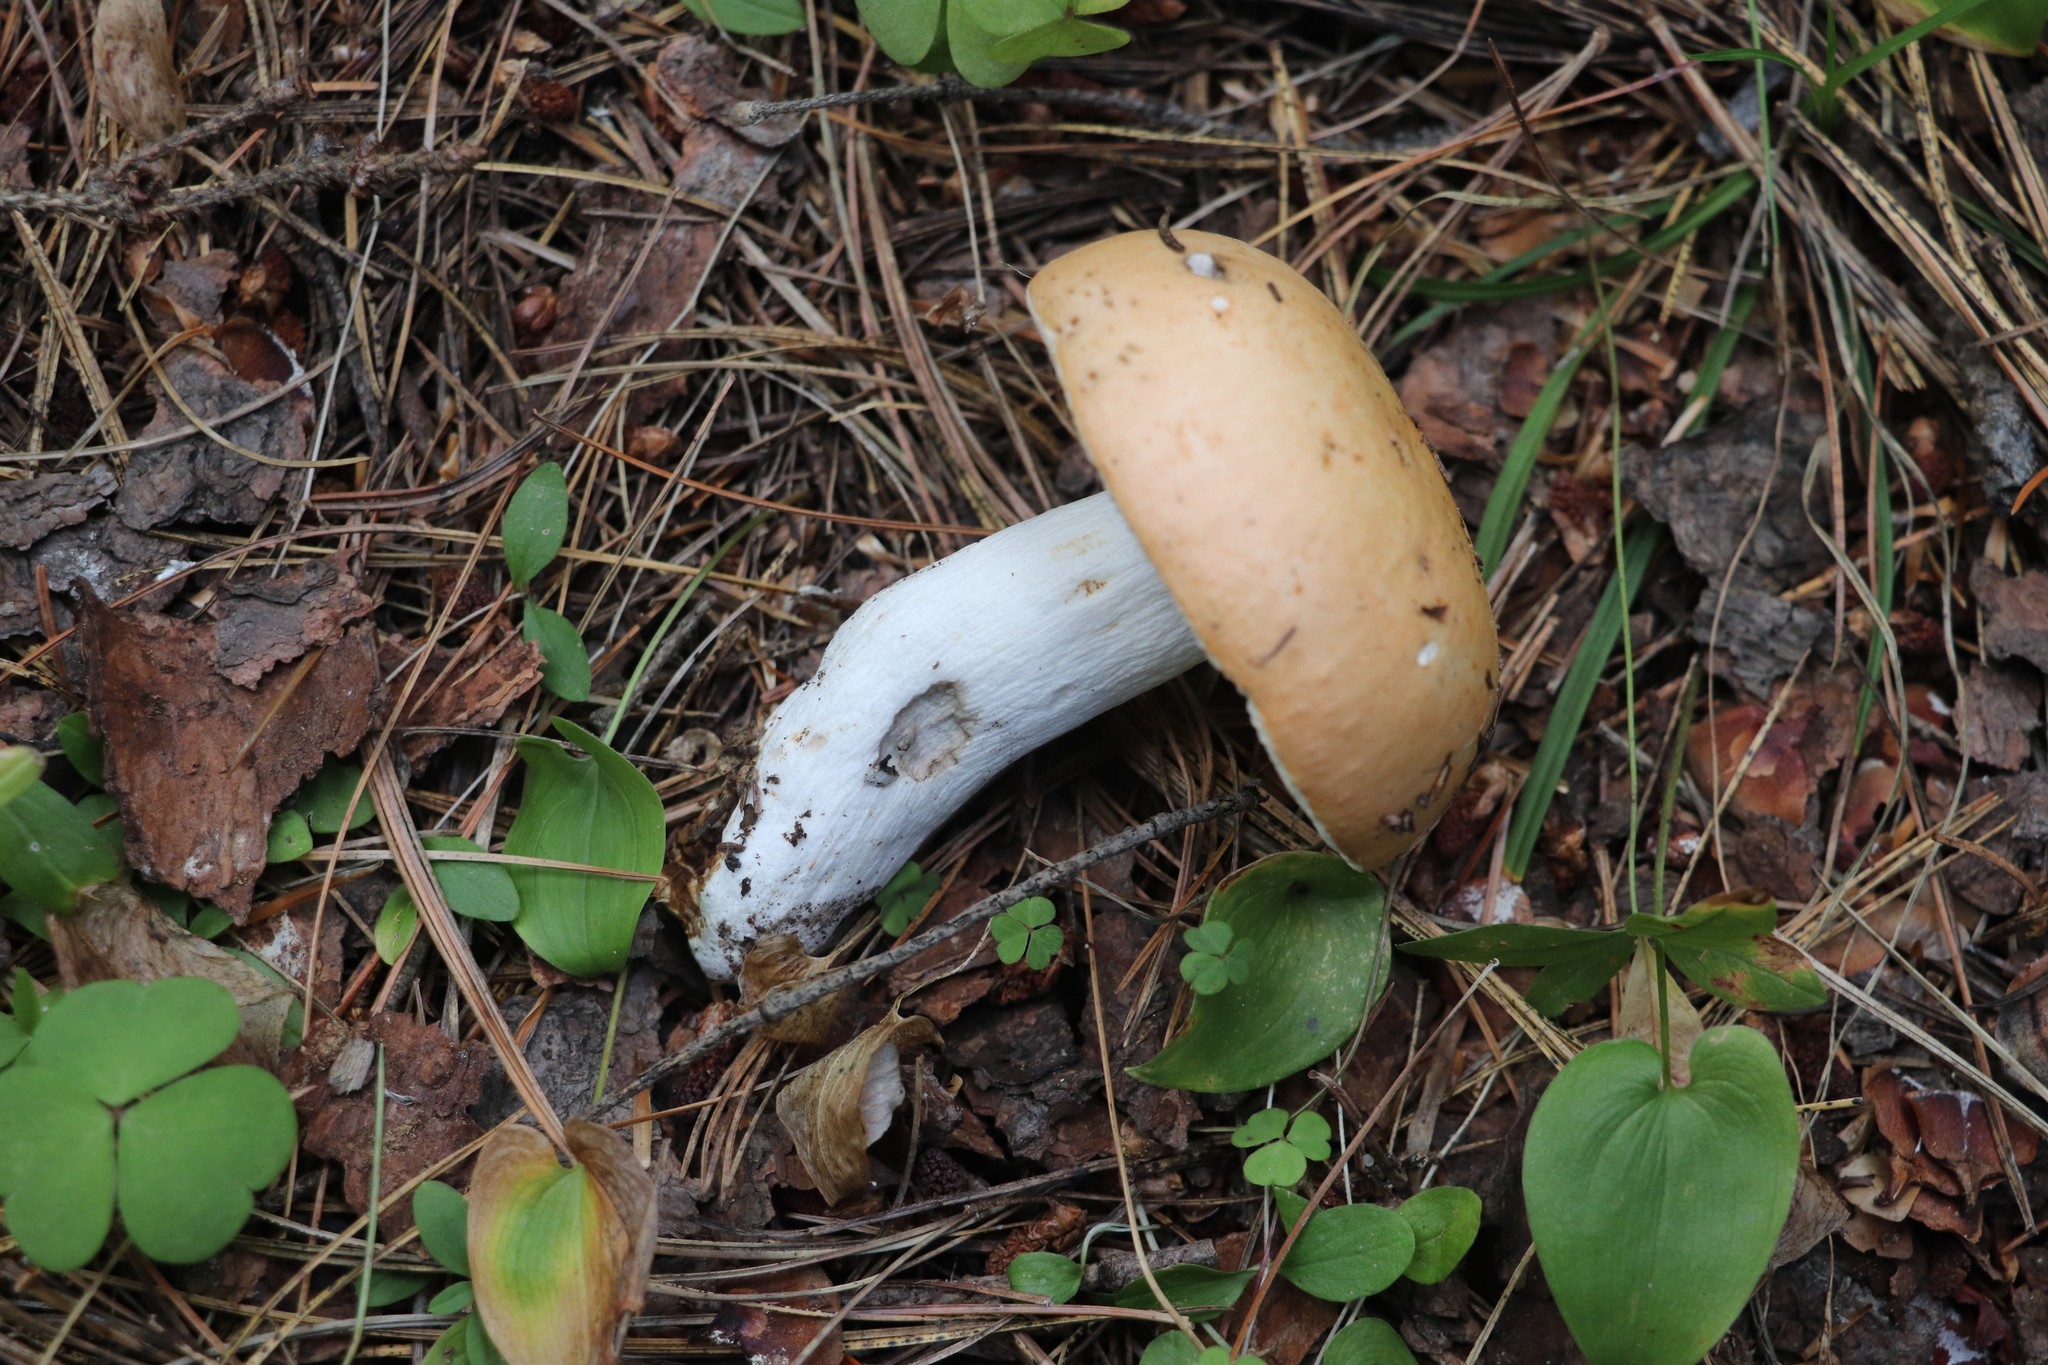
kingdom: Fungi
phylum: Basidiomycota
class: Agaricomycetes
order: Russulales
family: Russulaceae
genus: Russula
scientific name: Russula decolorans
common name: Copper brittlegill
